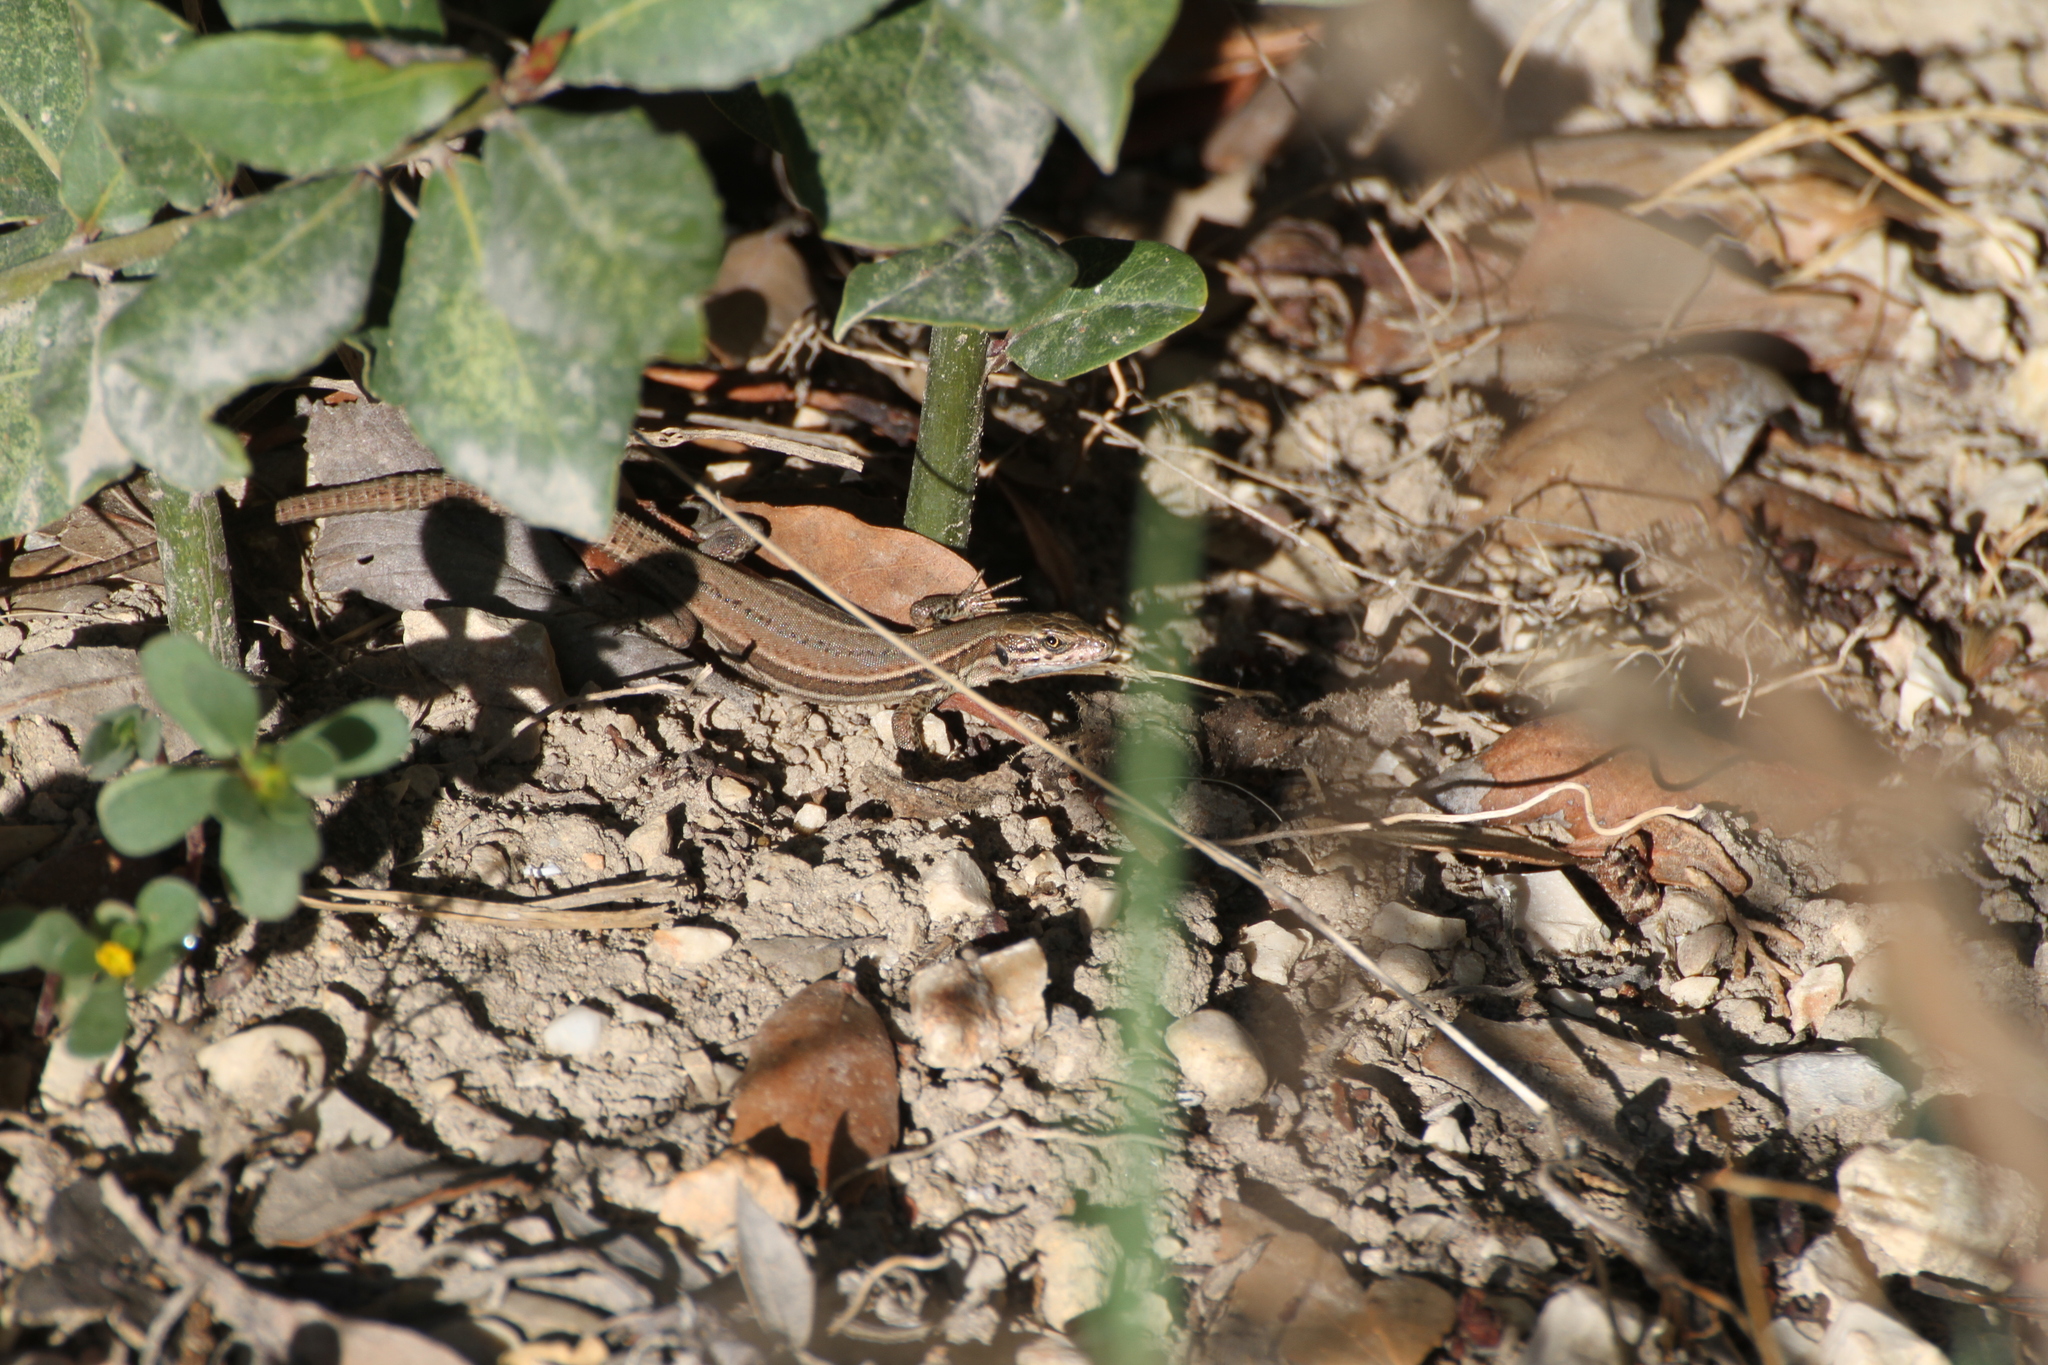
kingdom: Animalia
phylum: Chordata
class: Squamata
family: Lacertidae
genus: Podarcis
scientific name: Podarcis muralis
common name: Common wall lizard
